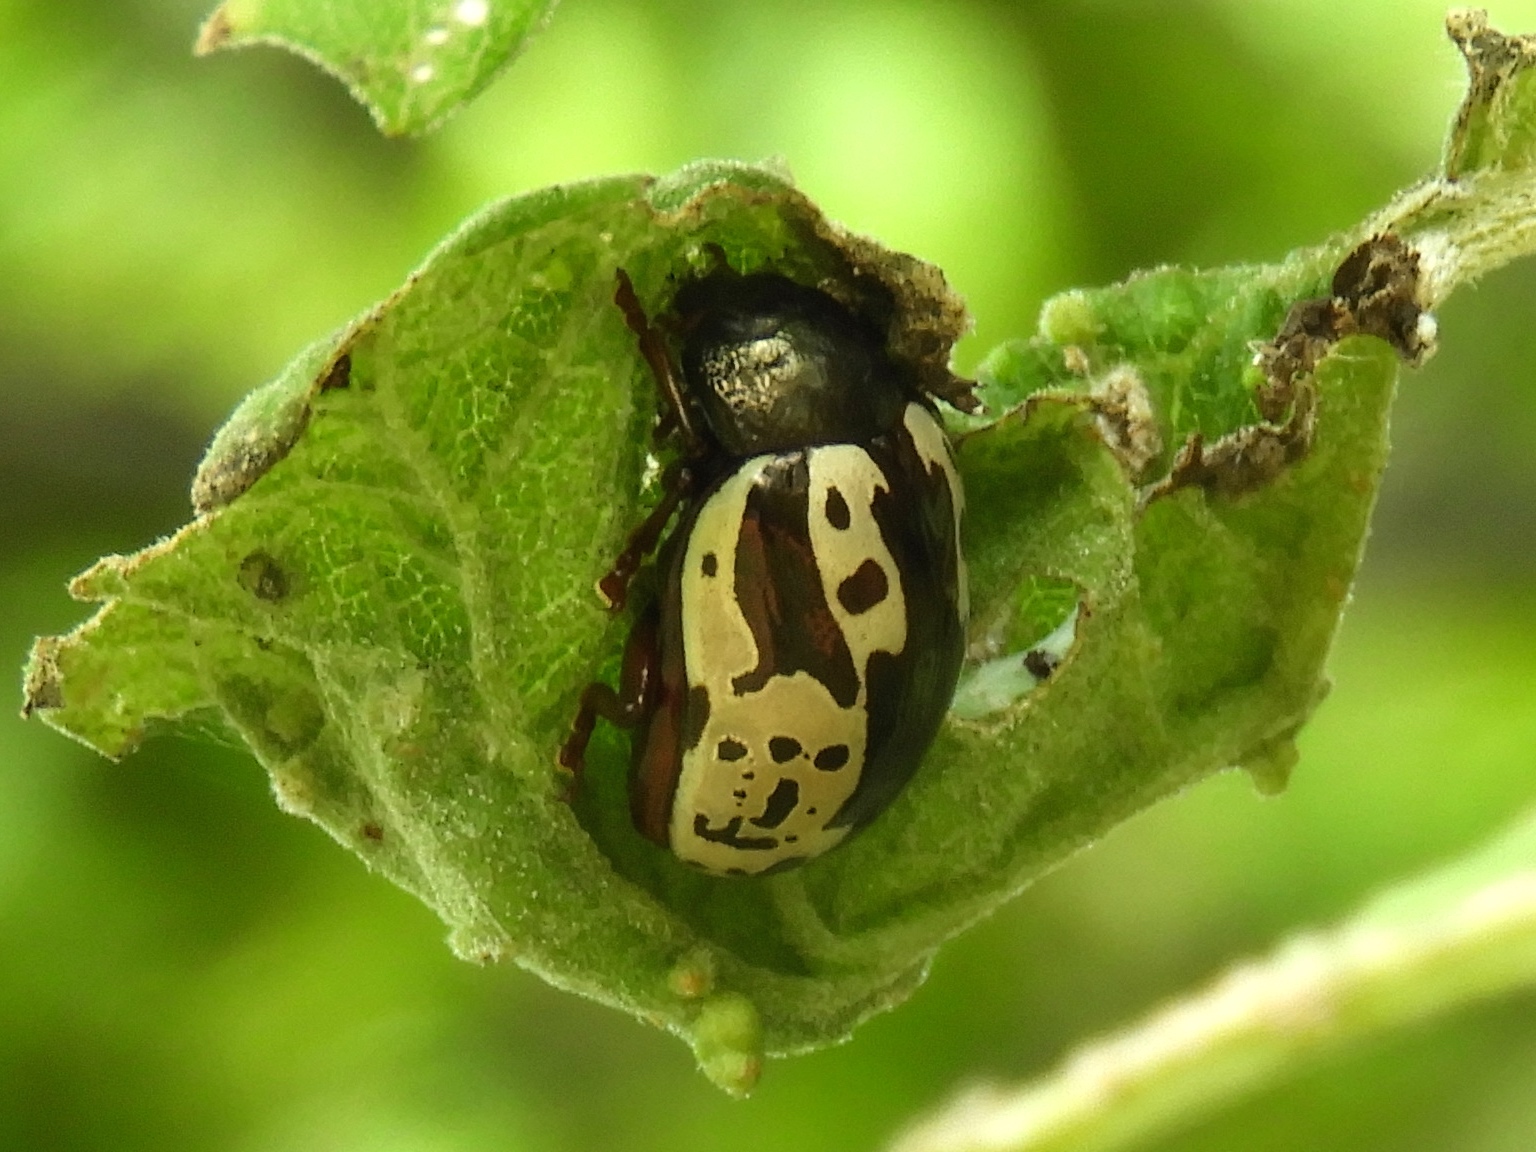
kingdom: Animalia
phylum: Arthropoda
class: Insecta
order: Coleoptera
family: Chrysomelidae
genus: Calligrapha
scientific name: Calligrapha intermedia
